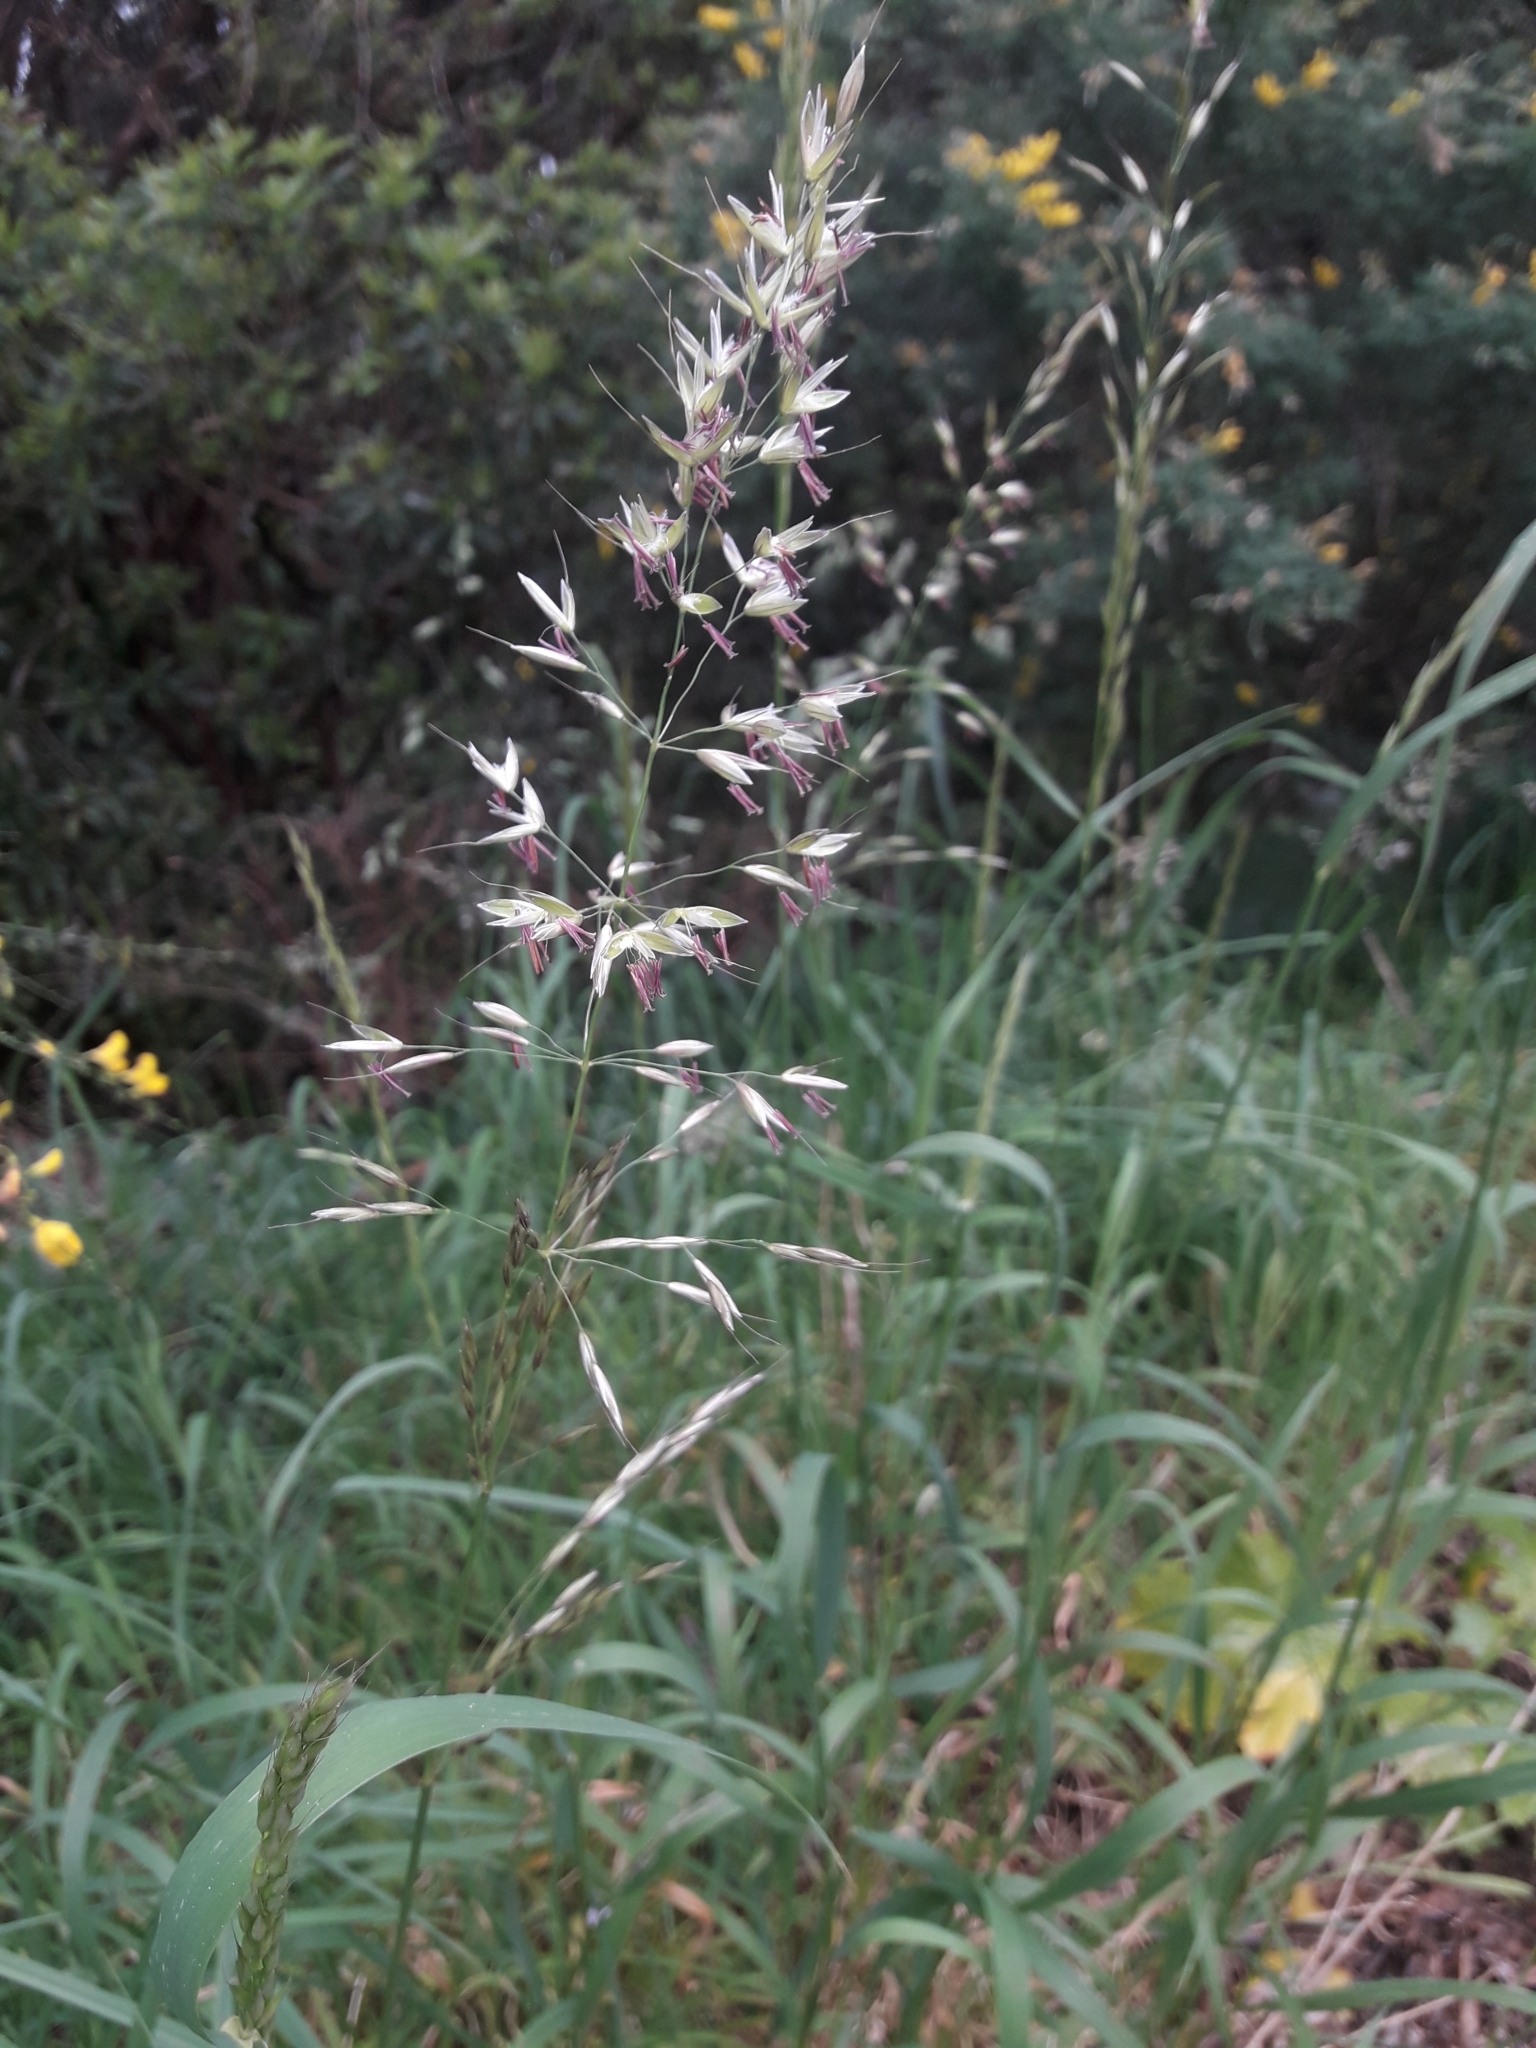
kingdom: Plantae
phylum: Tracheophyta
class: Liliopsida
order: Poales
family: Poaceae
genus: Arrhenatherum
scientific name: Arrhenatherum elatius
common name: Tall oatgrass
